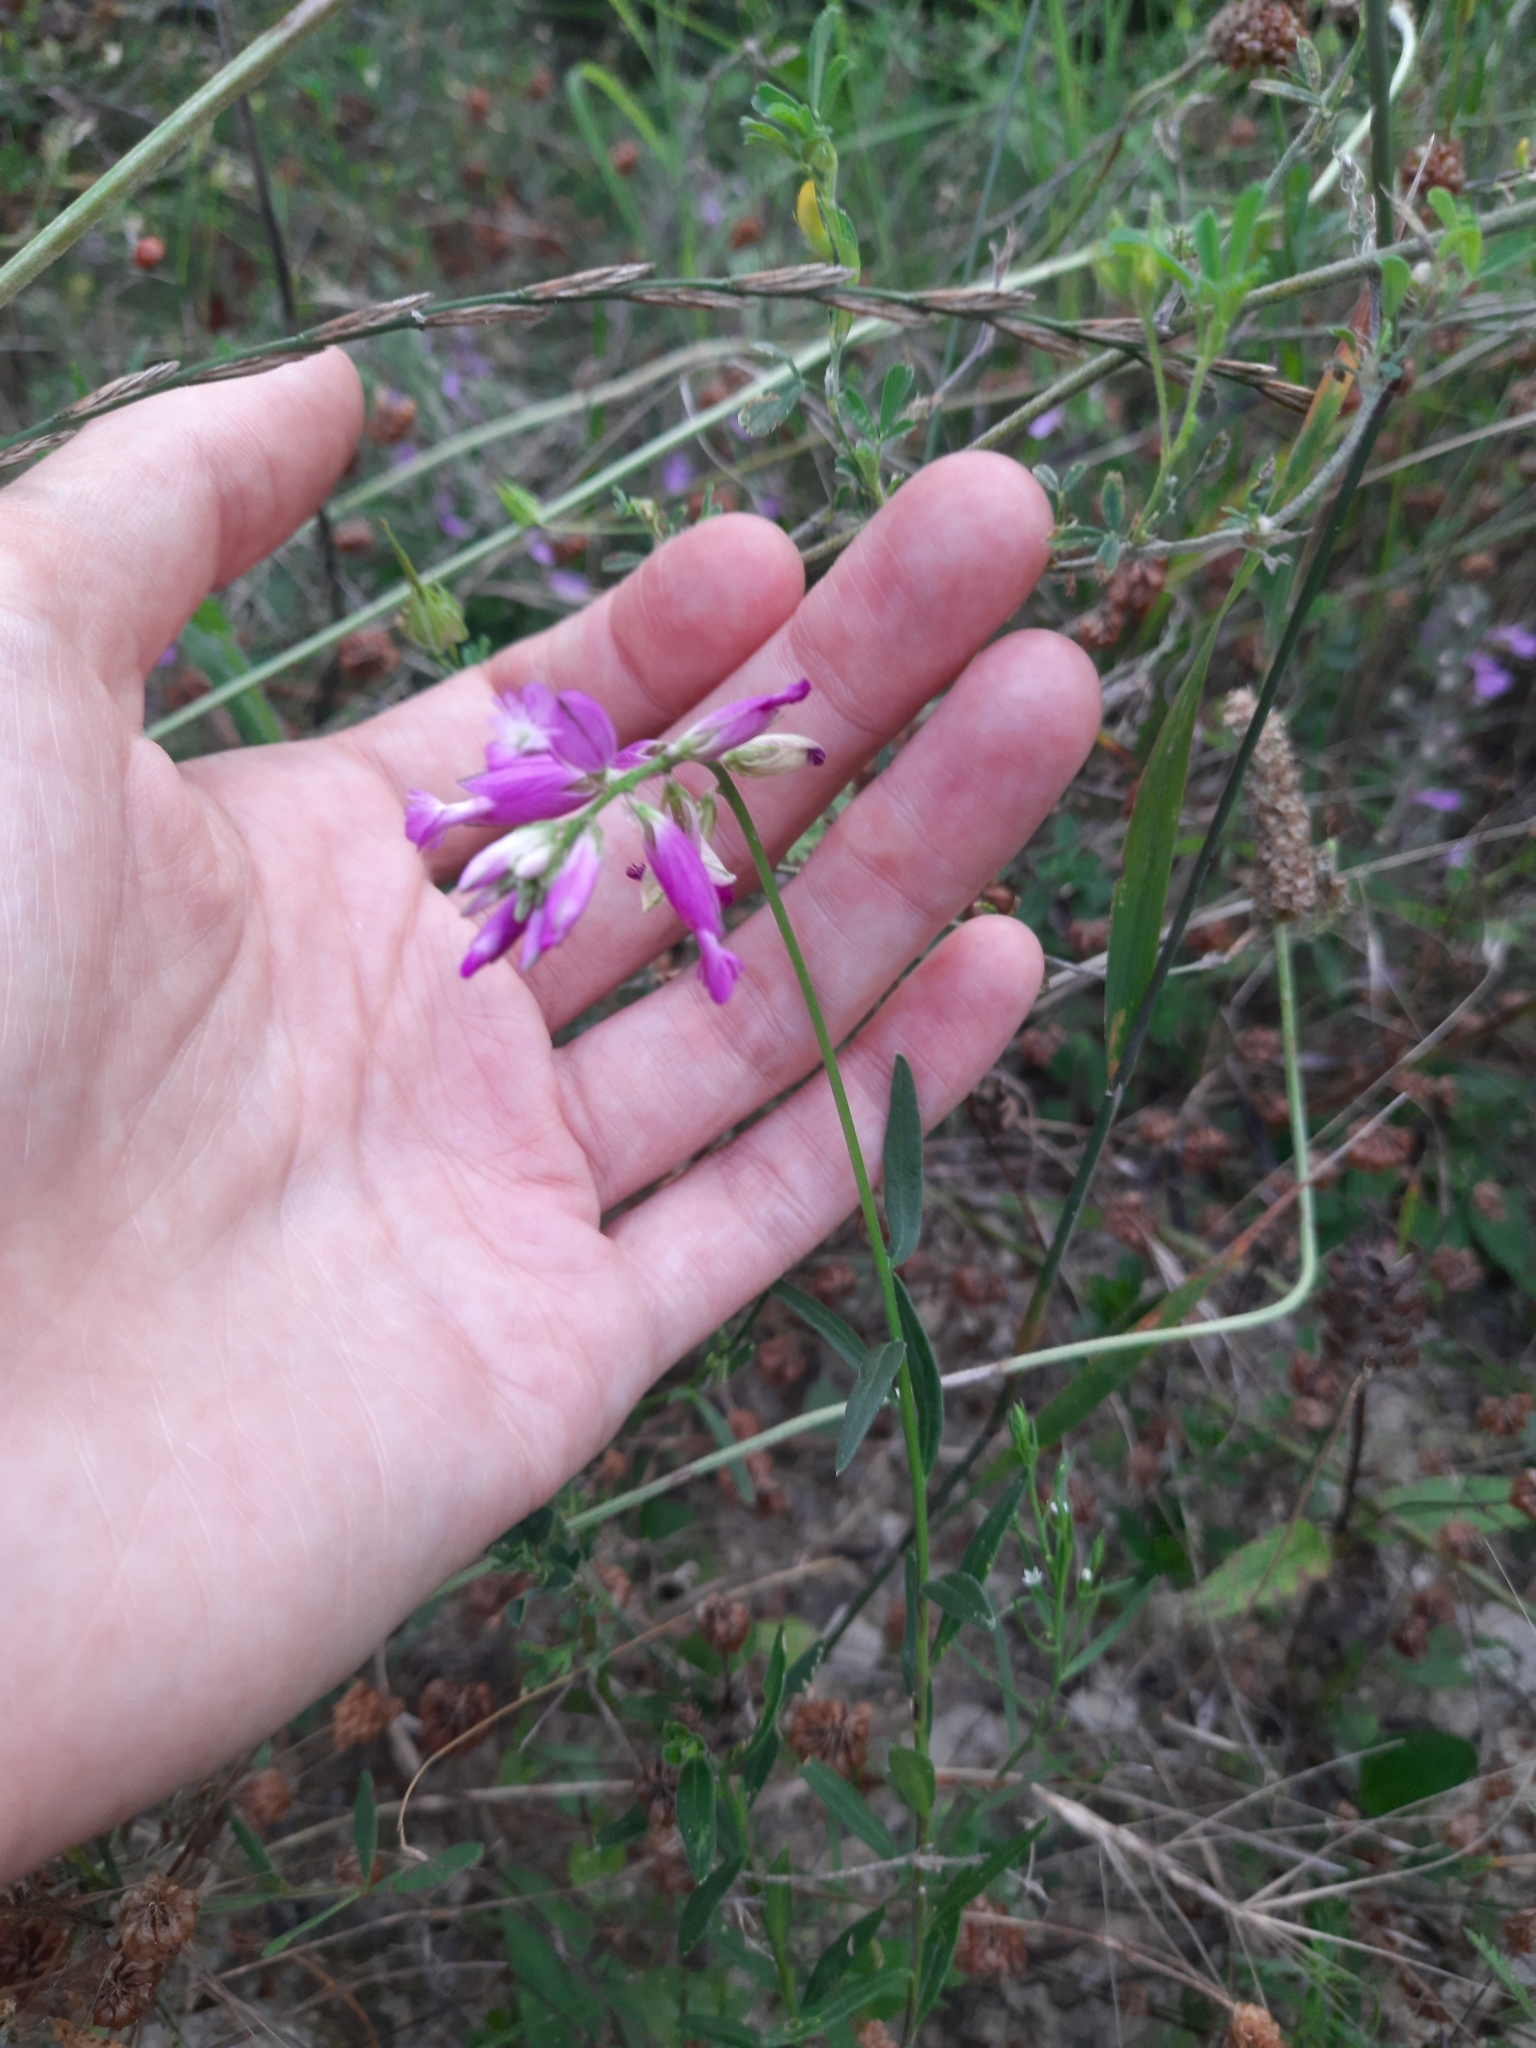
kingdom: Plantae
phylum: Tracheophyta
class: Magnoliopsida
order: Fabales
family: Polygalaceae
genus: Polygala
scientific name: Polygala major
